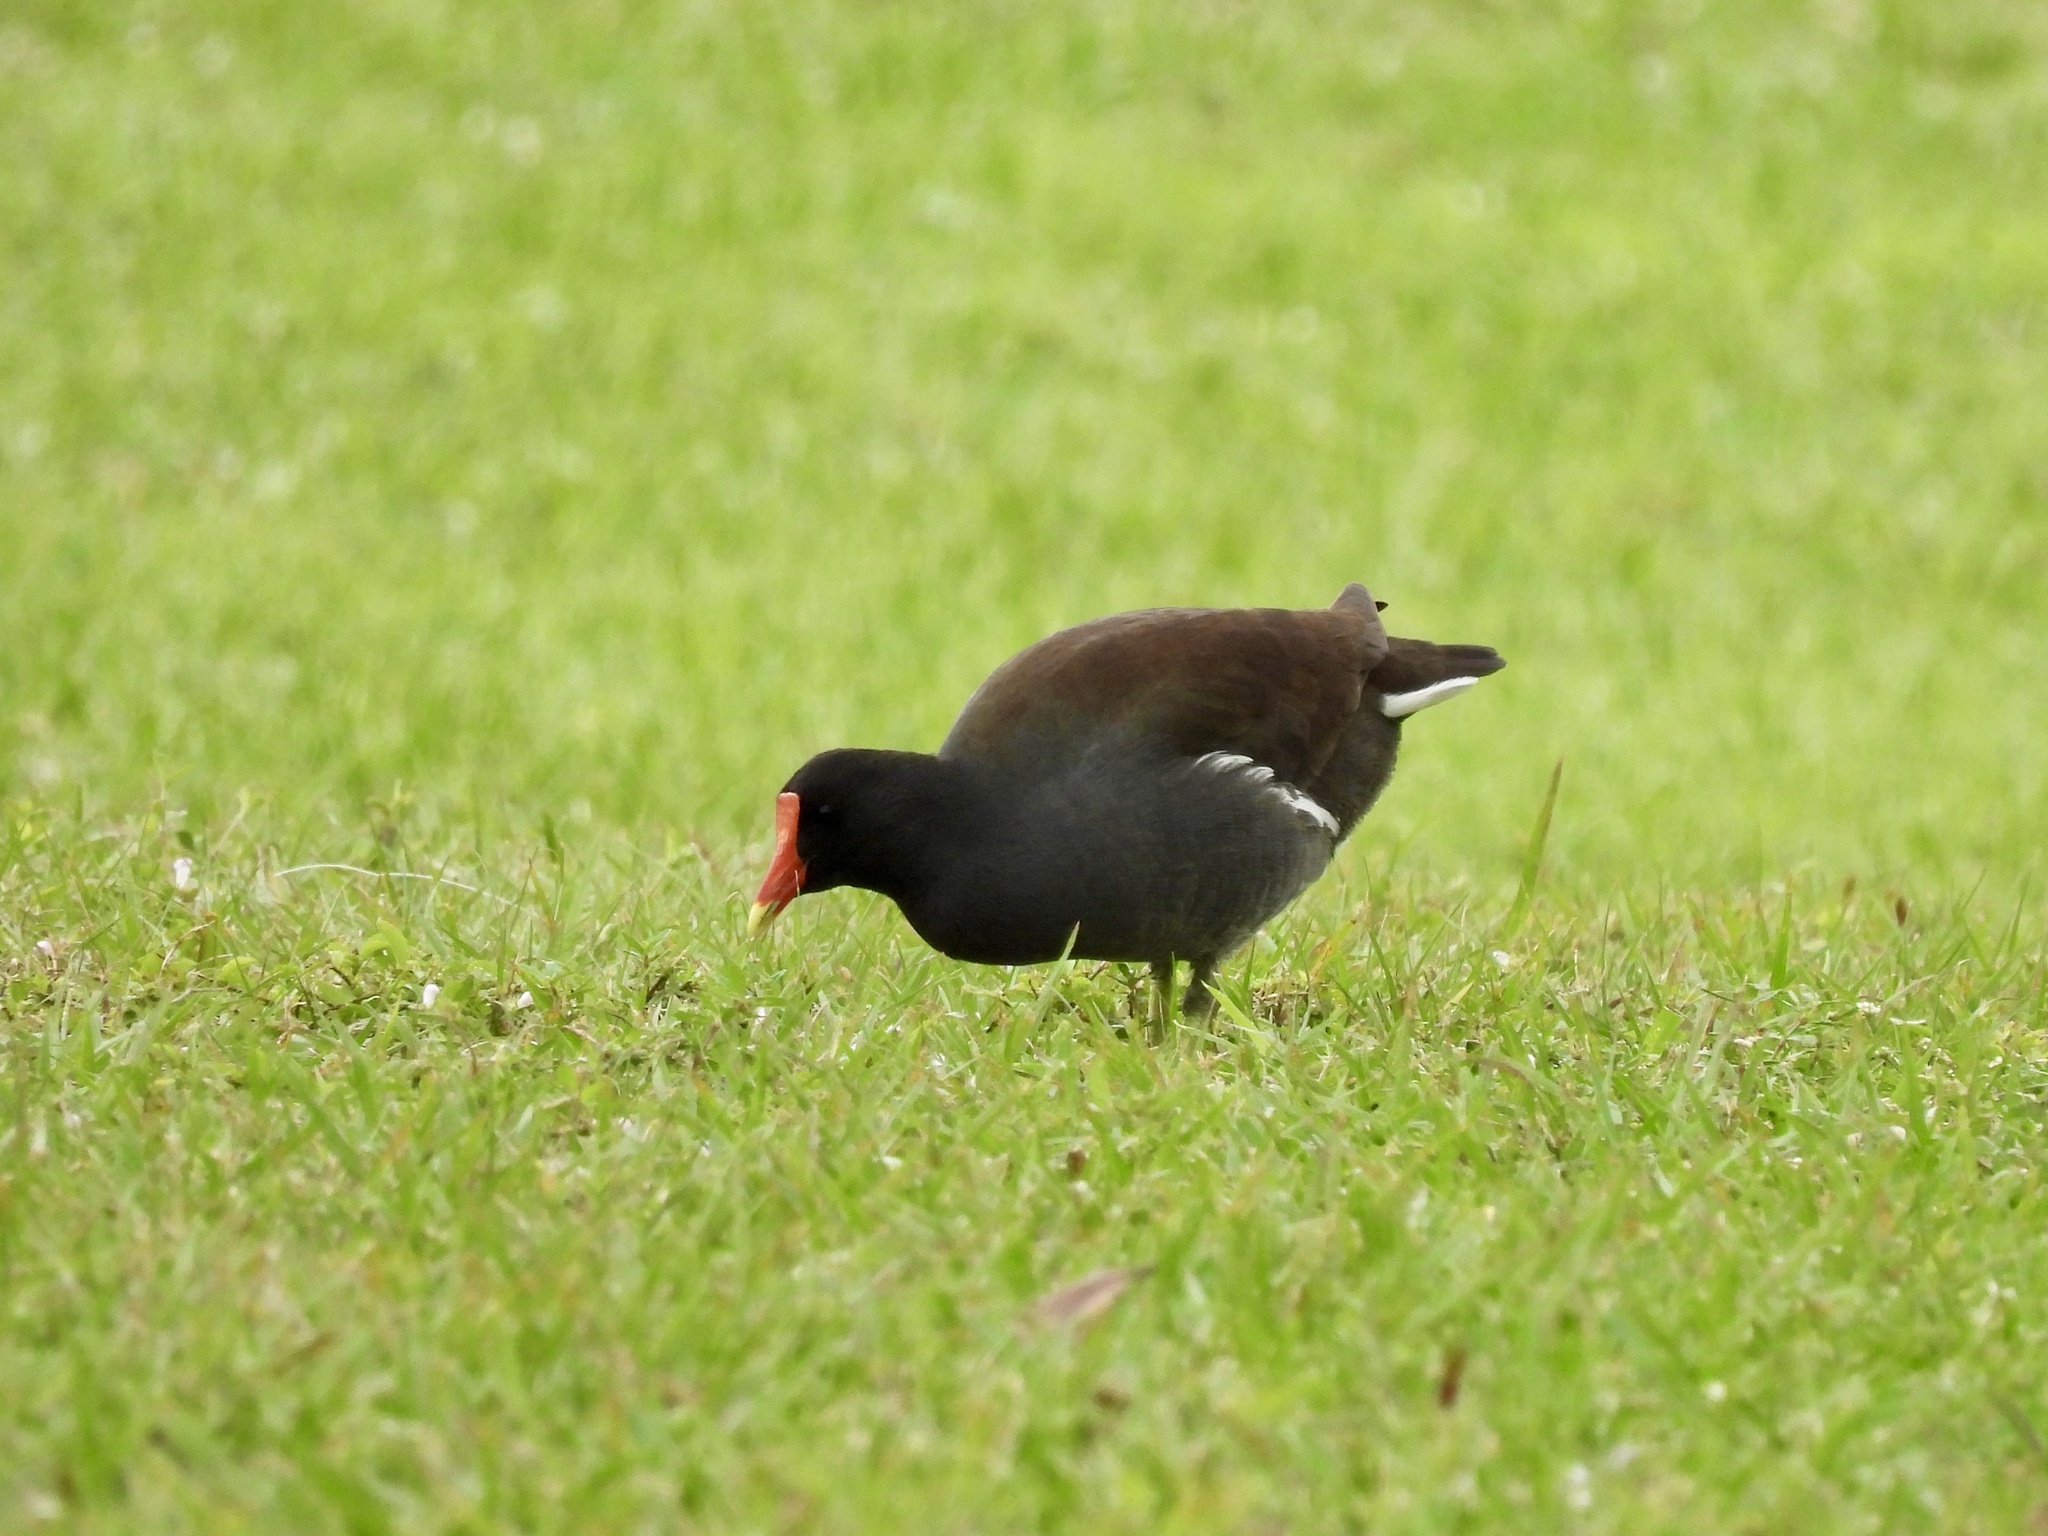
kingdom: Animalia
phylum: Chordata
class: Aves
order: Gruiformes
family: Rallidae
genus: Gallinula
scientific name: Gallinula chloropus
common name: Common moorhen
